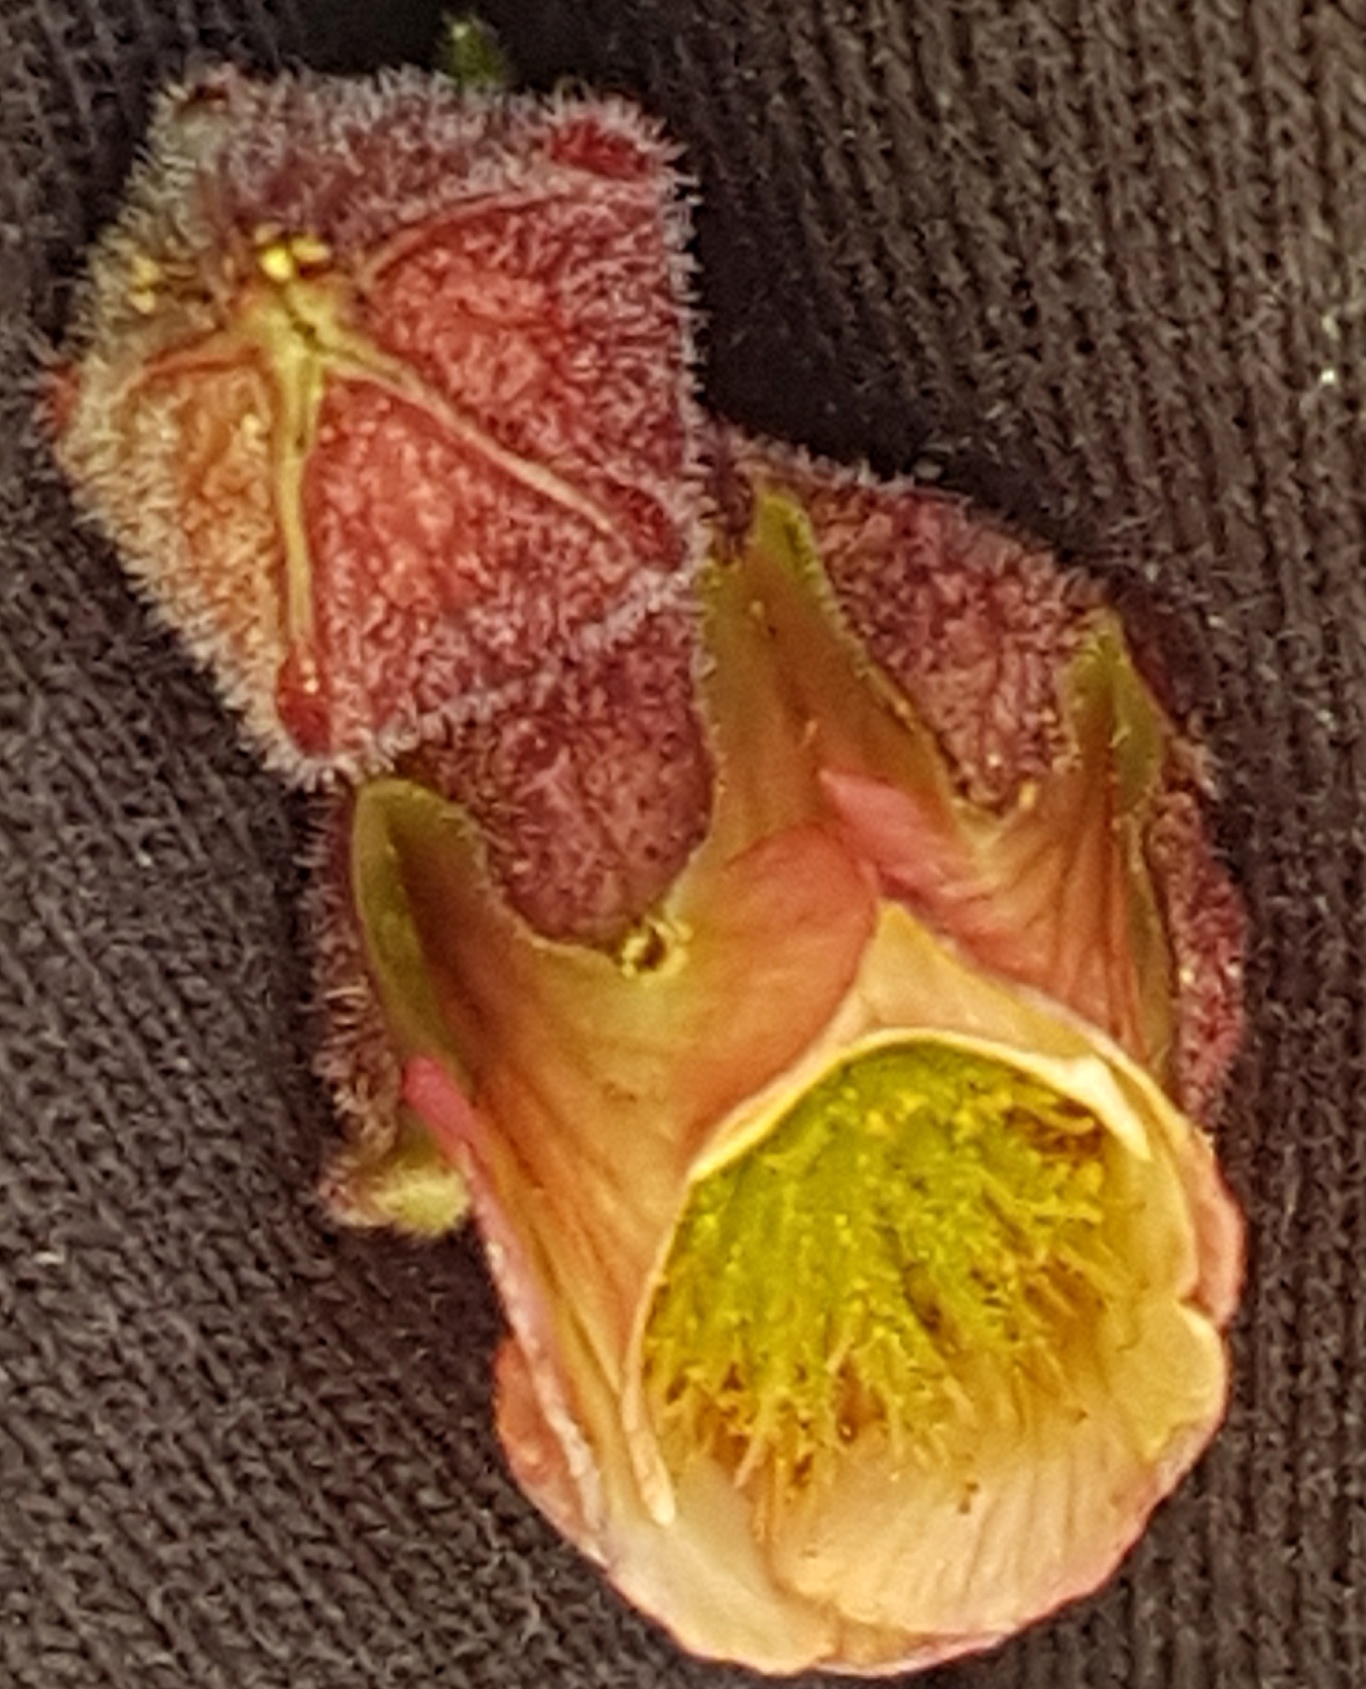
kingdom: Plantae
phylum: Tracheophyta
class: Magnoliopsida
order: Rosales
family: Rosaceae
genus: Geum
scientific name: Geum rivale
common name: Water avens
